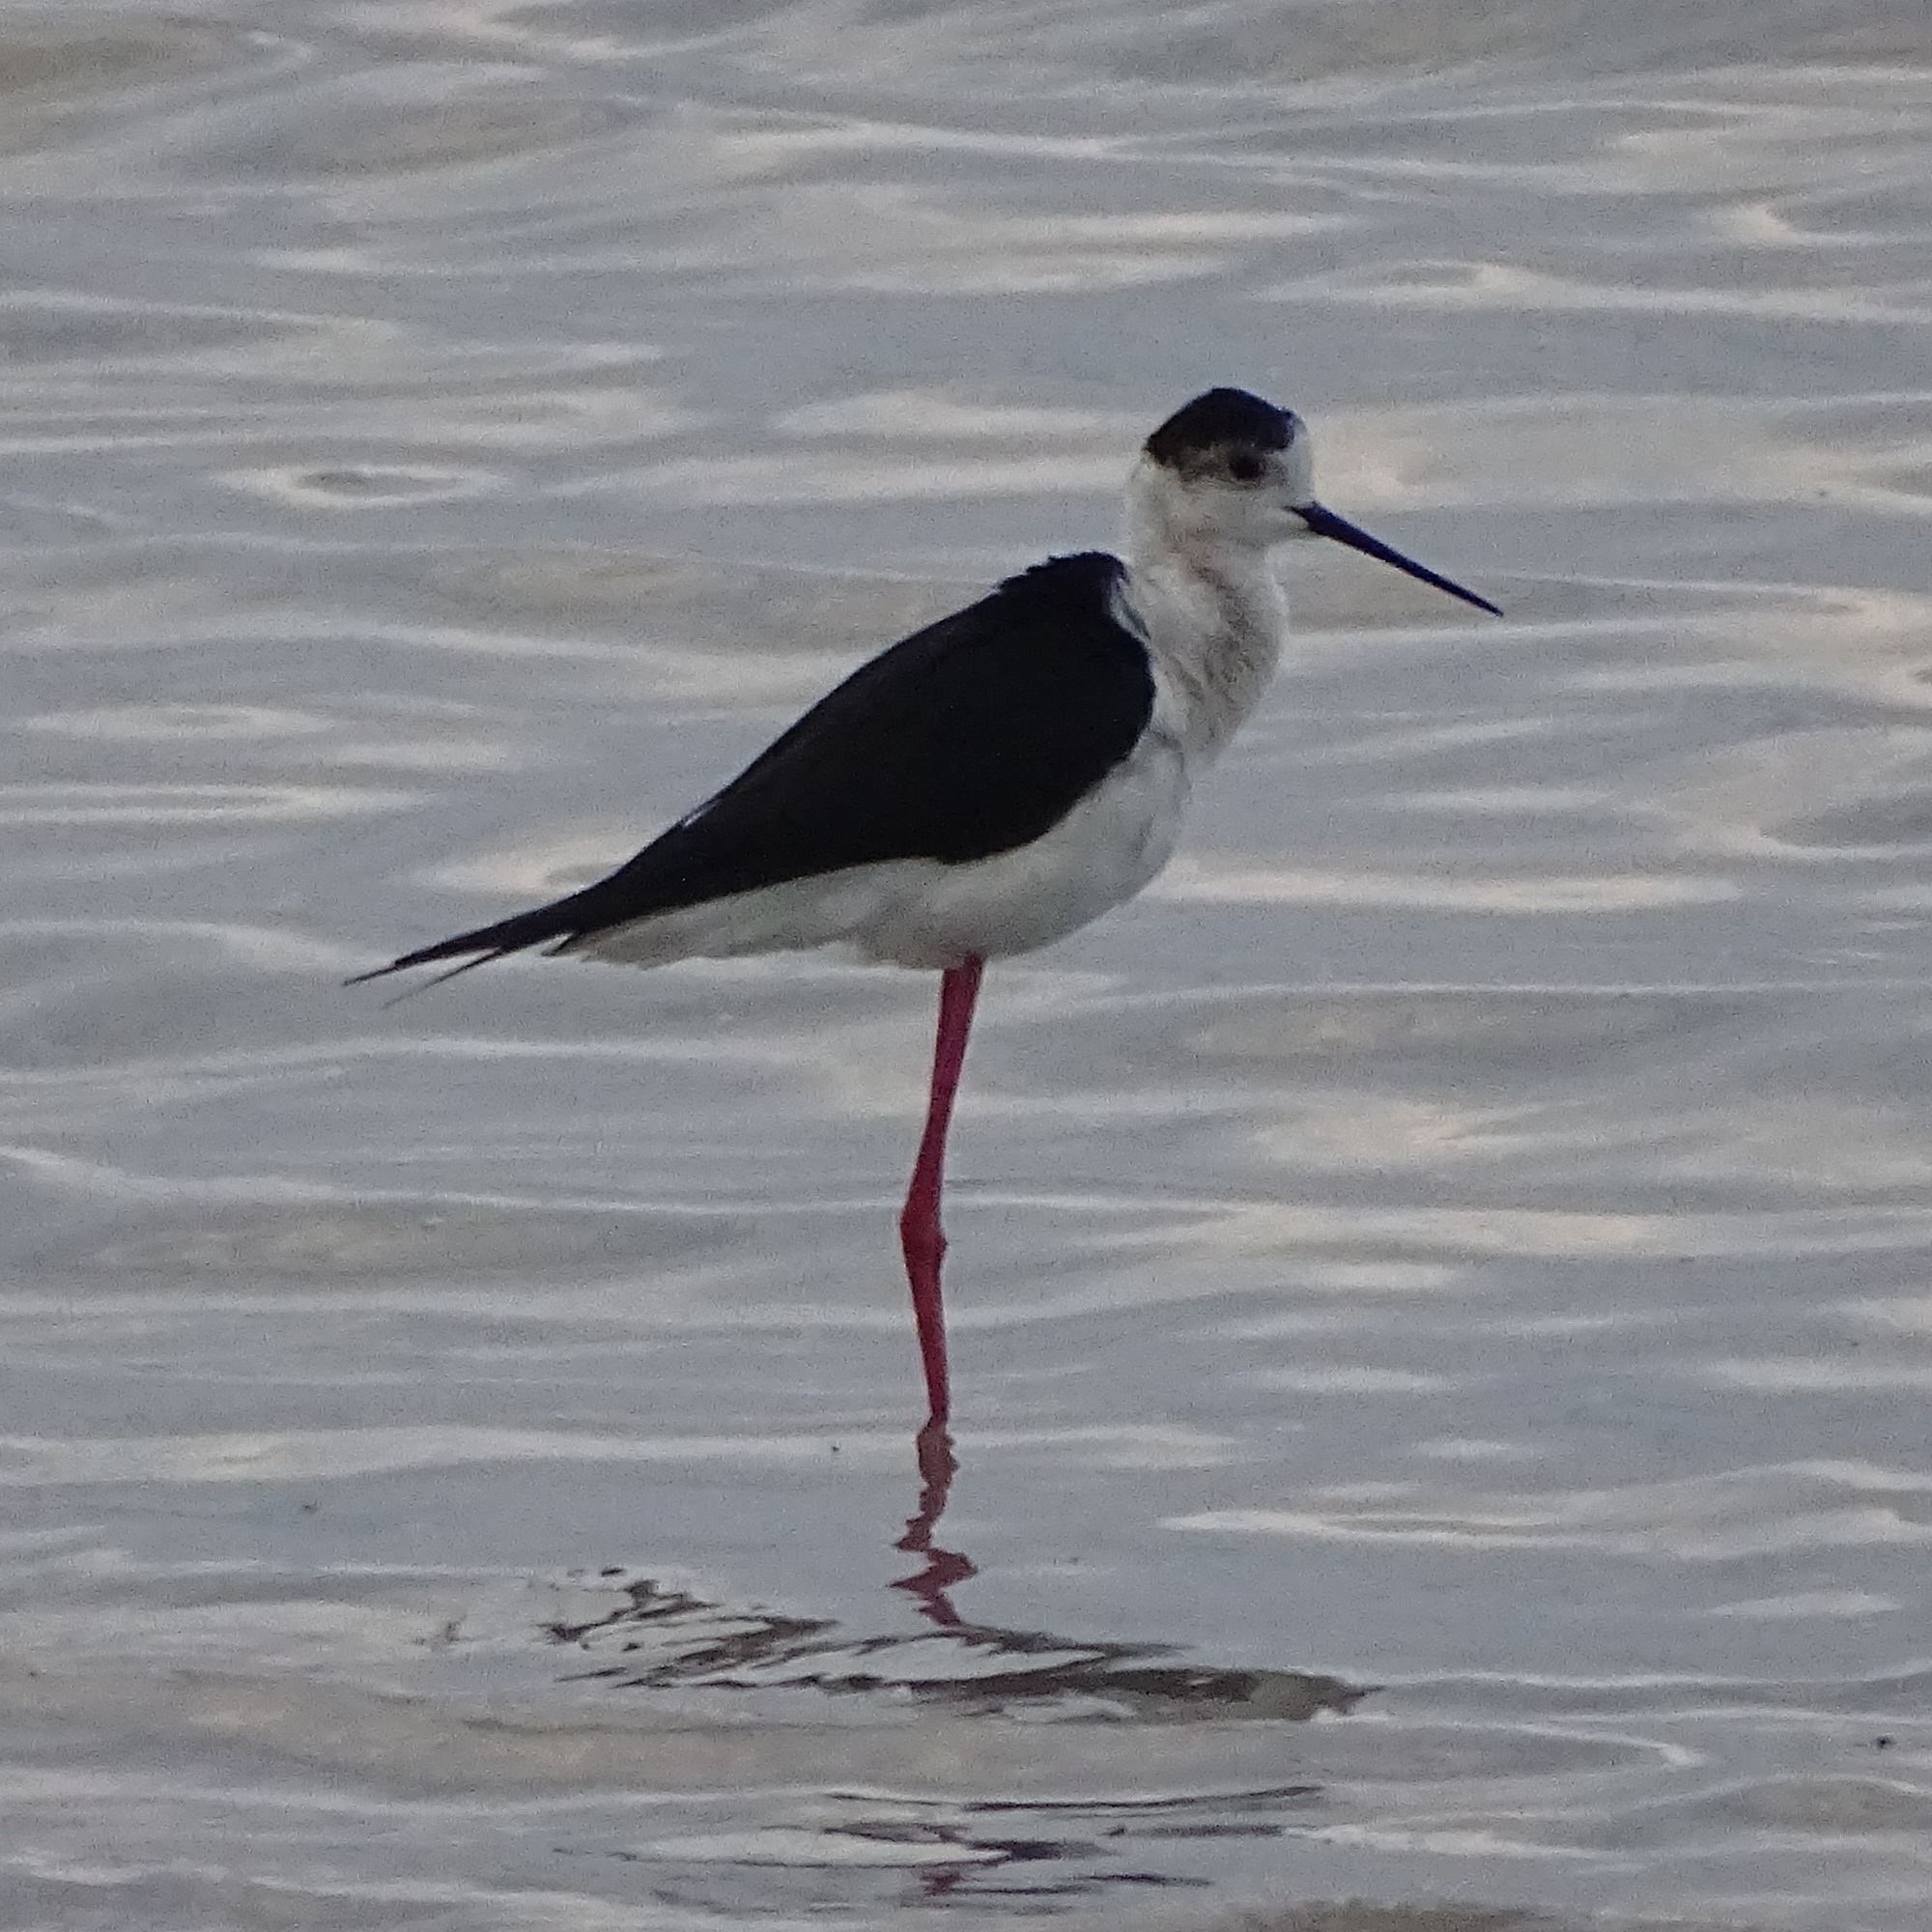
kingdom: Animalia
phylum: Chordata
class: Aves
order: Charadriiformes
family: Recurvirostridae
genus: Himantopus
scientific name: Himantopus himantopus
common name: Black-winged stilt
